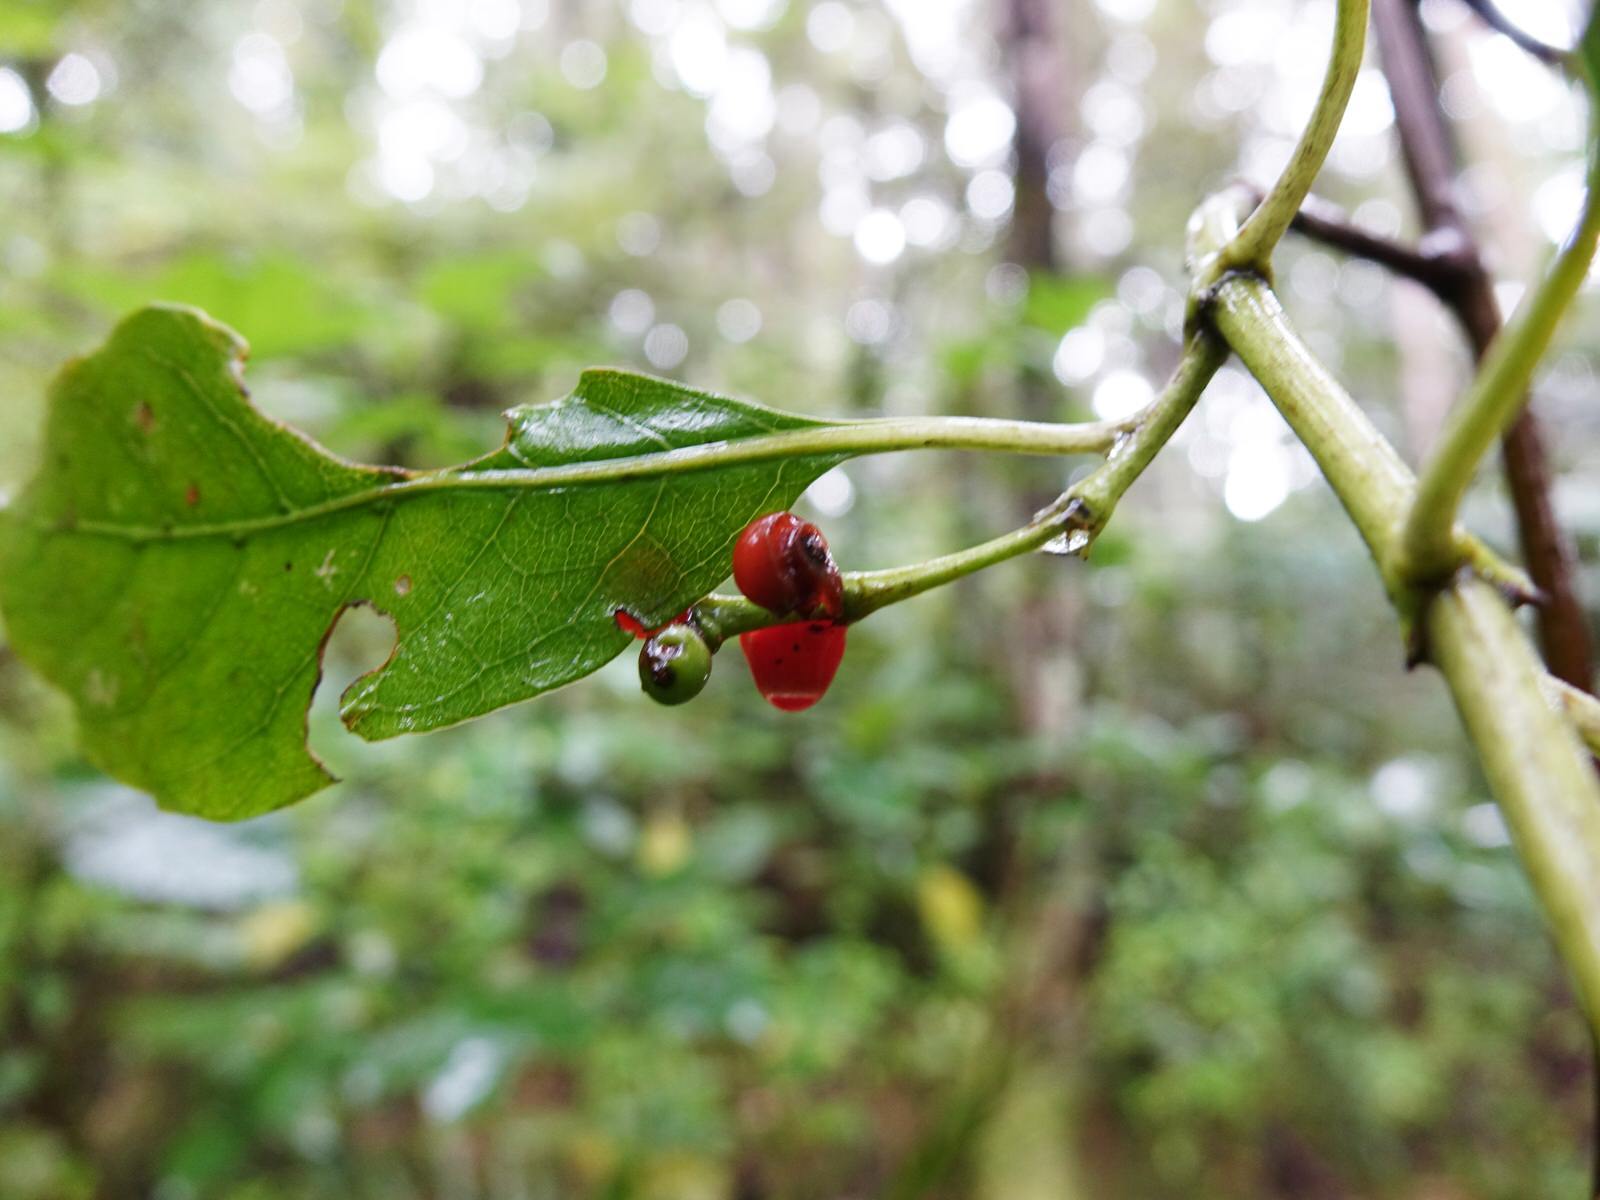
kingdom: Plantae
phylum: Tracheophyta
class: Magnoliopsida
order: Gentianales
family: Rubiaceae
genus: Coprosma
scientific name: Coprosma autumnalis
